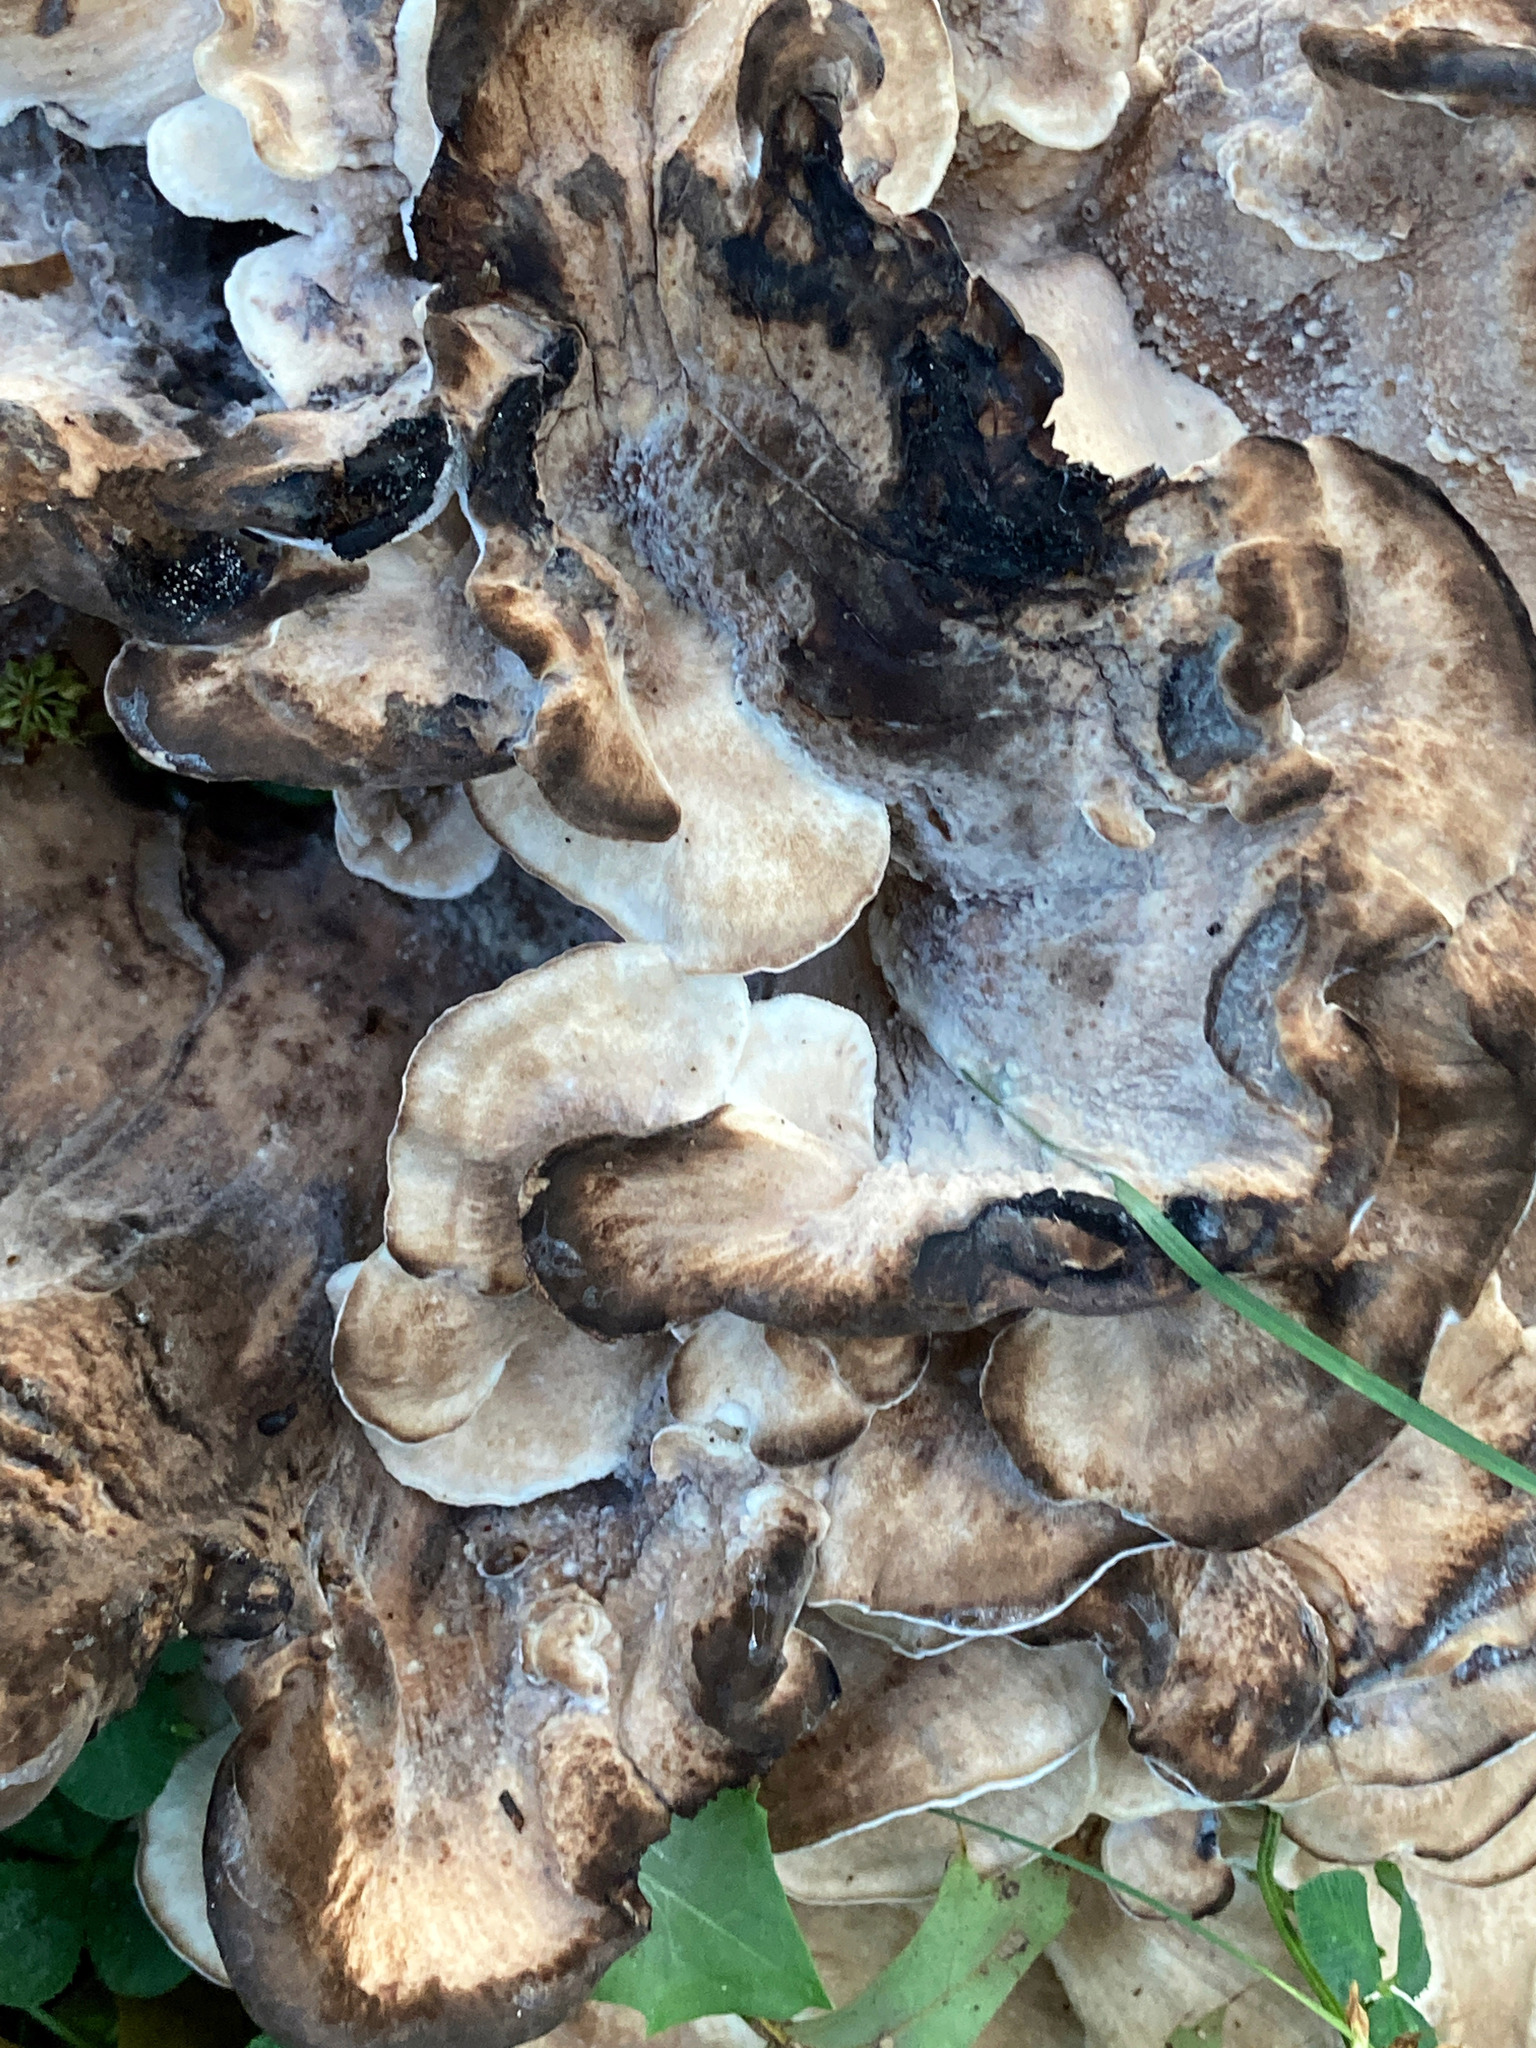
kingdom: Fungi
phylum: Basidiomycota
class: Agaricomycetes
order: Polyporales
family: Meripilaceae
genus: Meripilus
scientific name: Meripilus sumstinei
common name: Black-staining polypore
